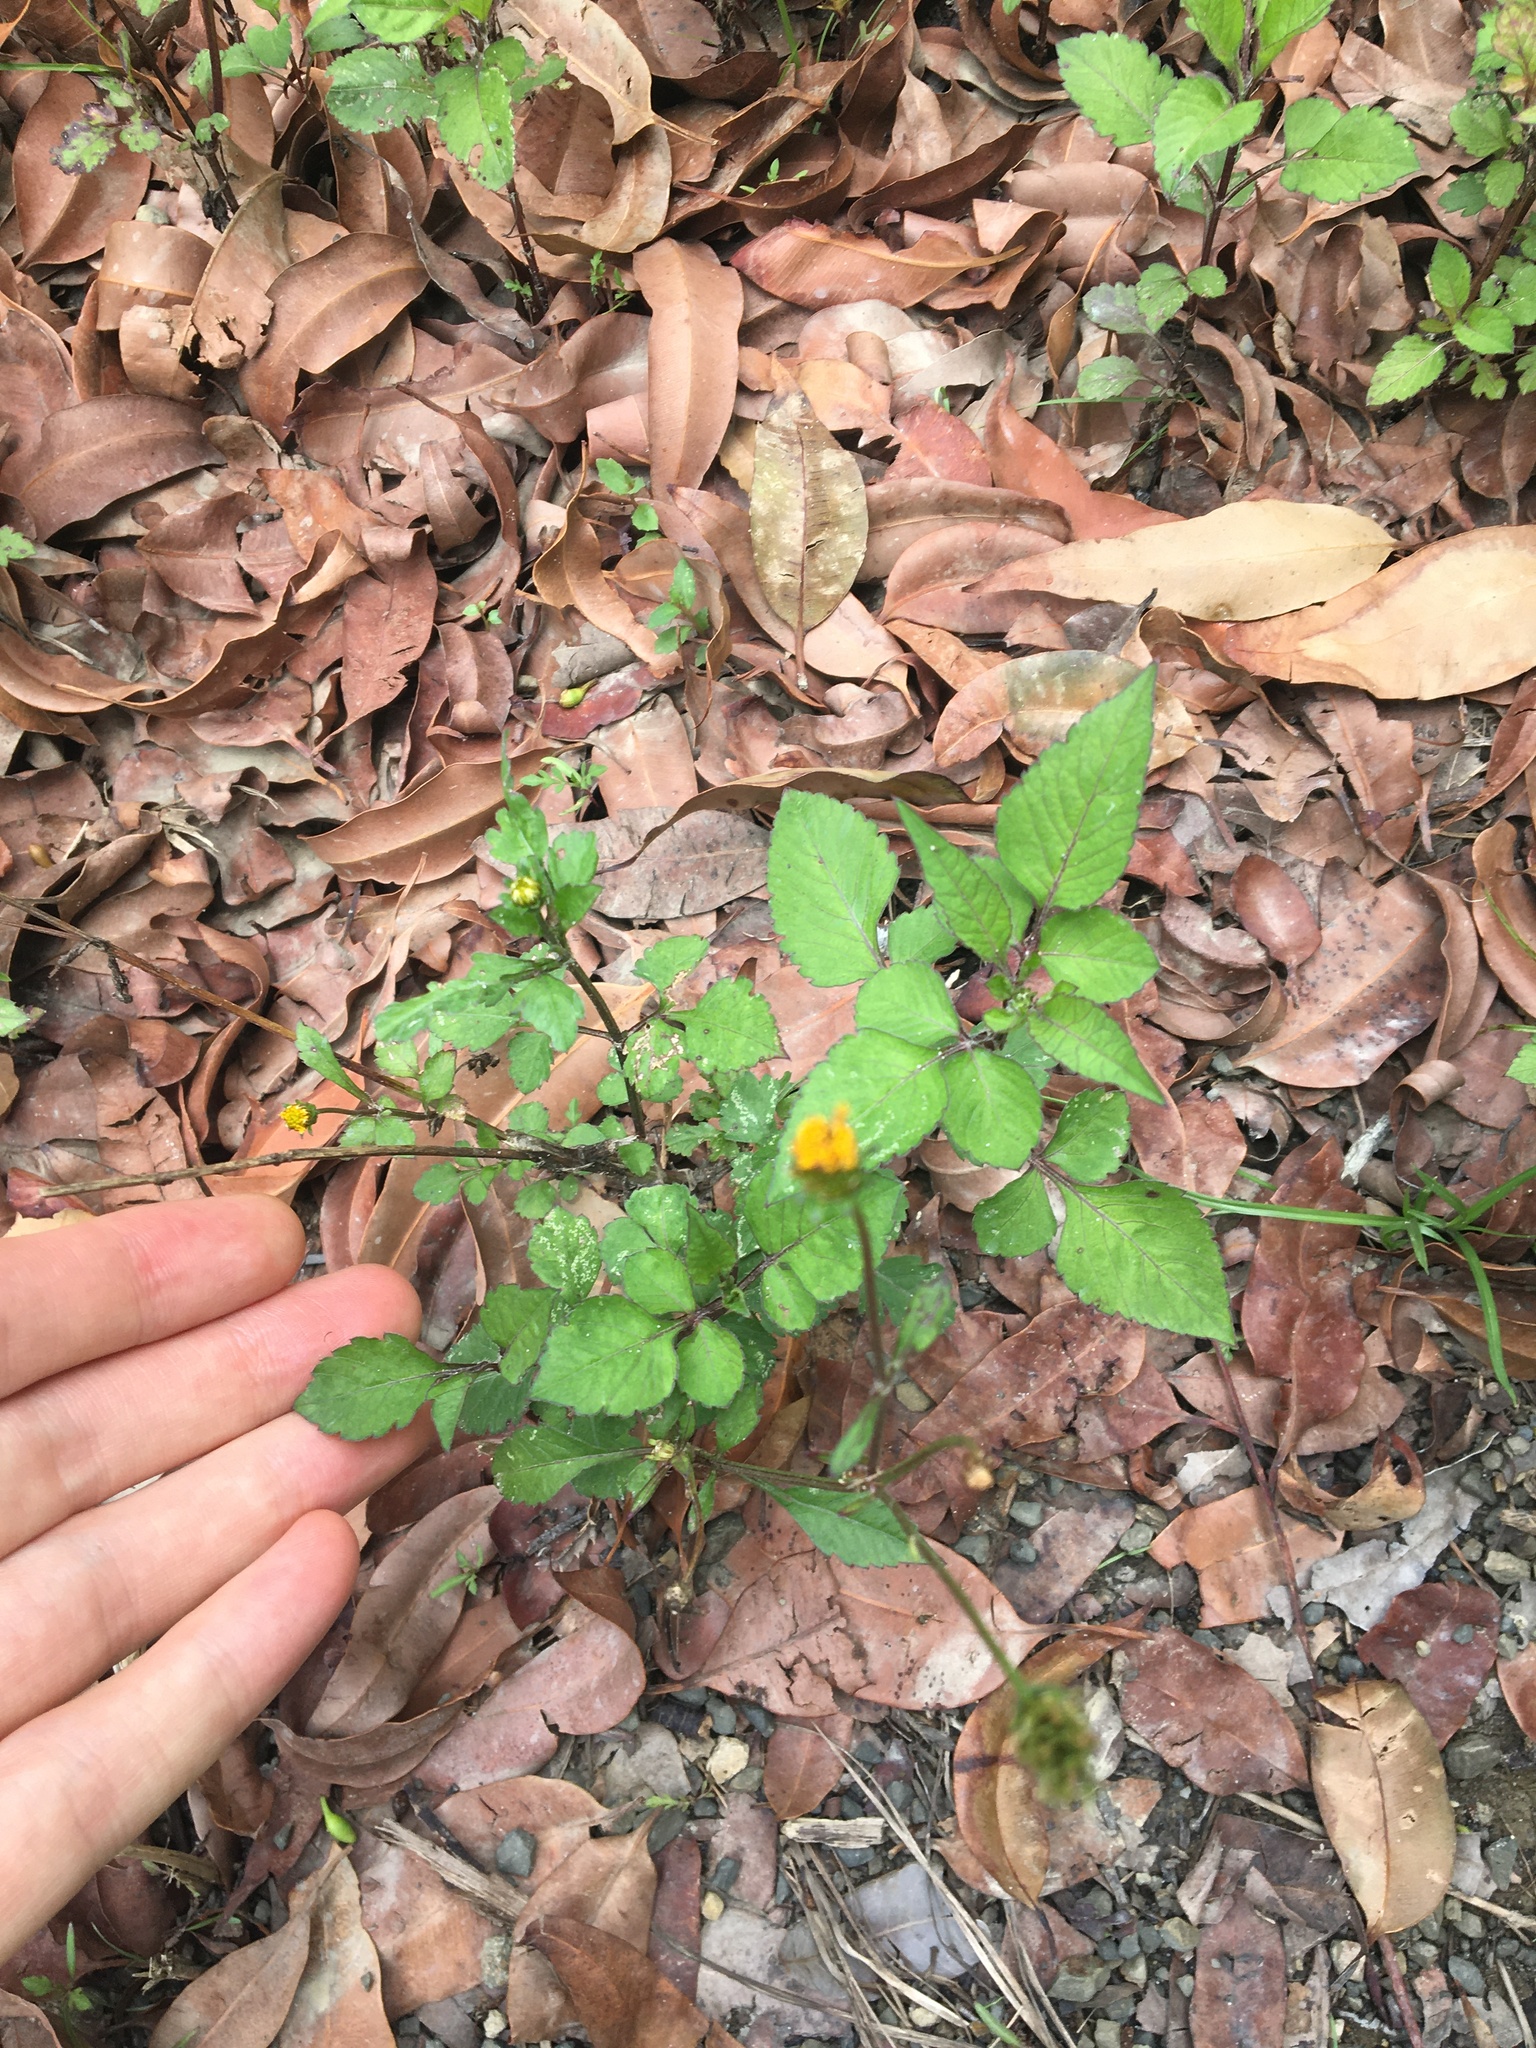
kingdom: Plantae
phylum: Tracheophyta
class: Magnoliopsida
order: Asterales
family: Asteraceae
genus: Bidens
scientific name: Bidens pilosa
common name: Black-jack
